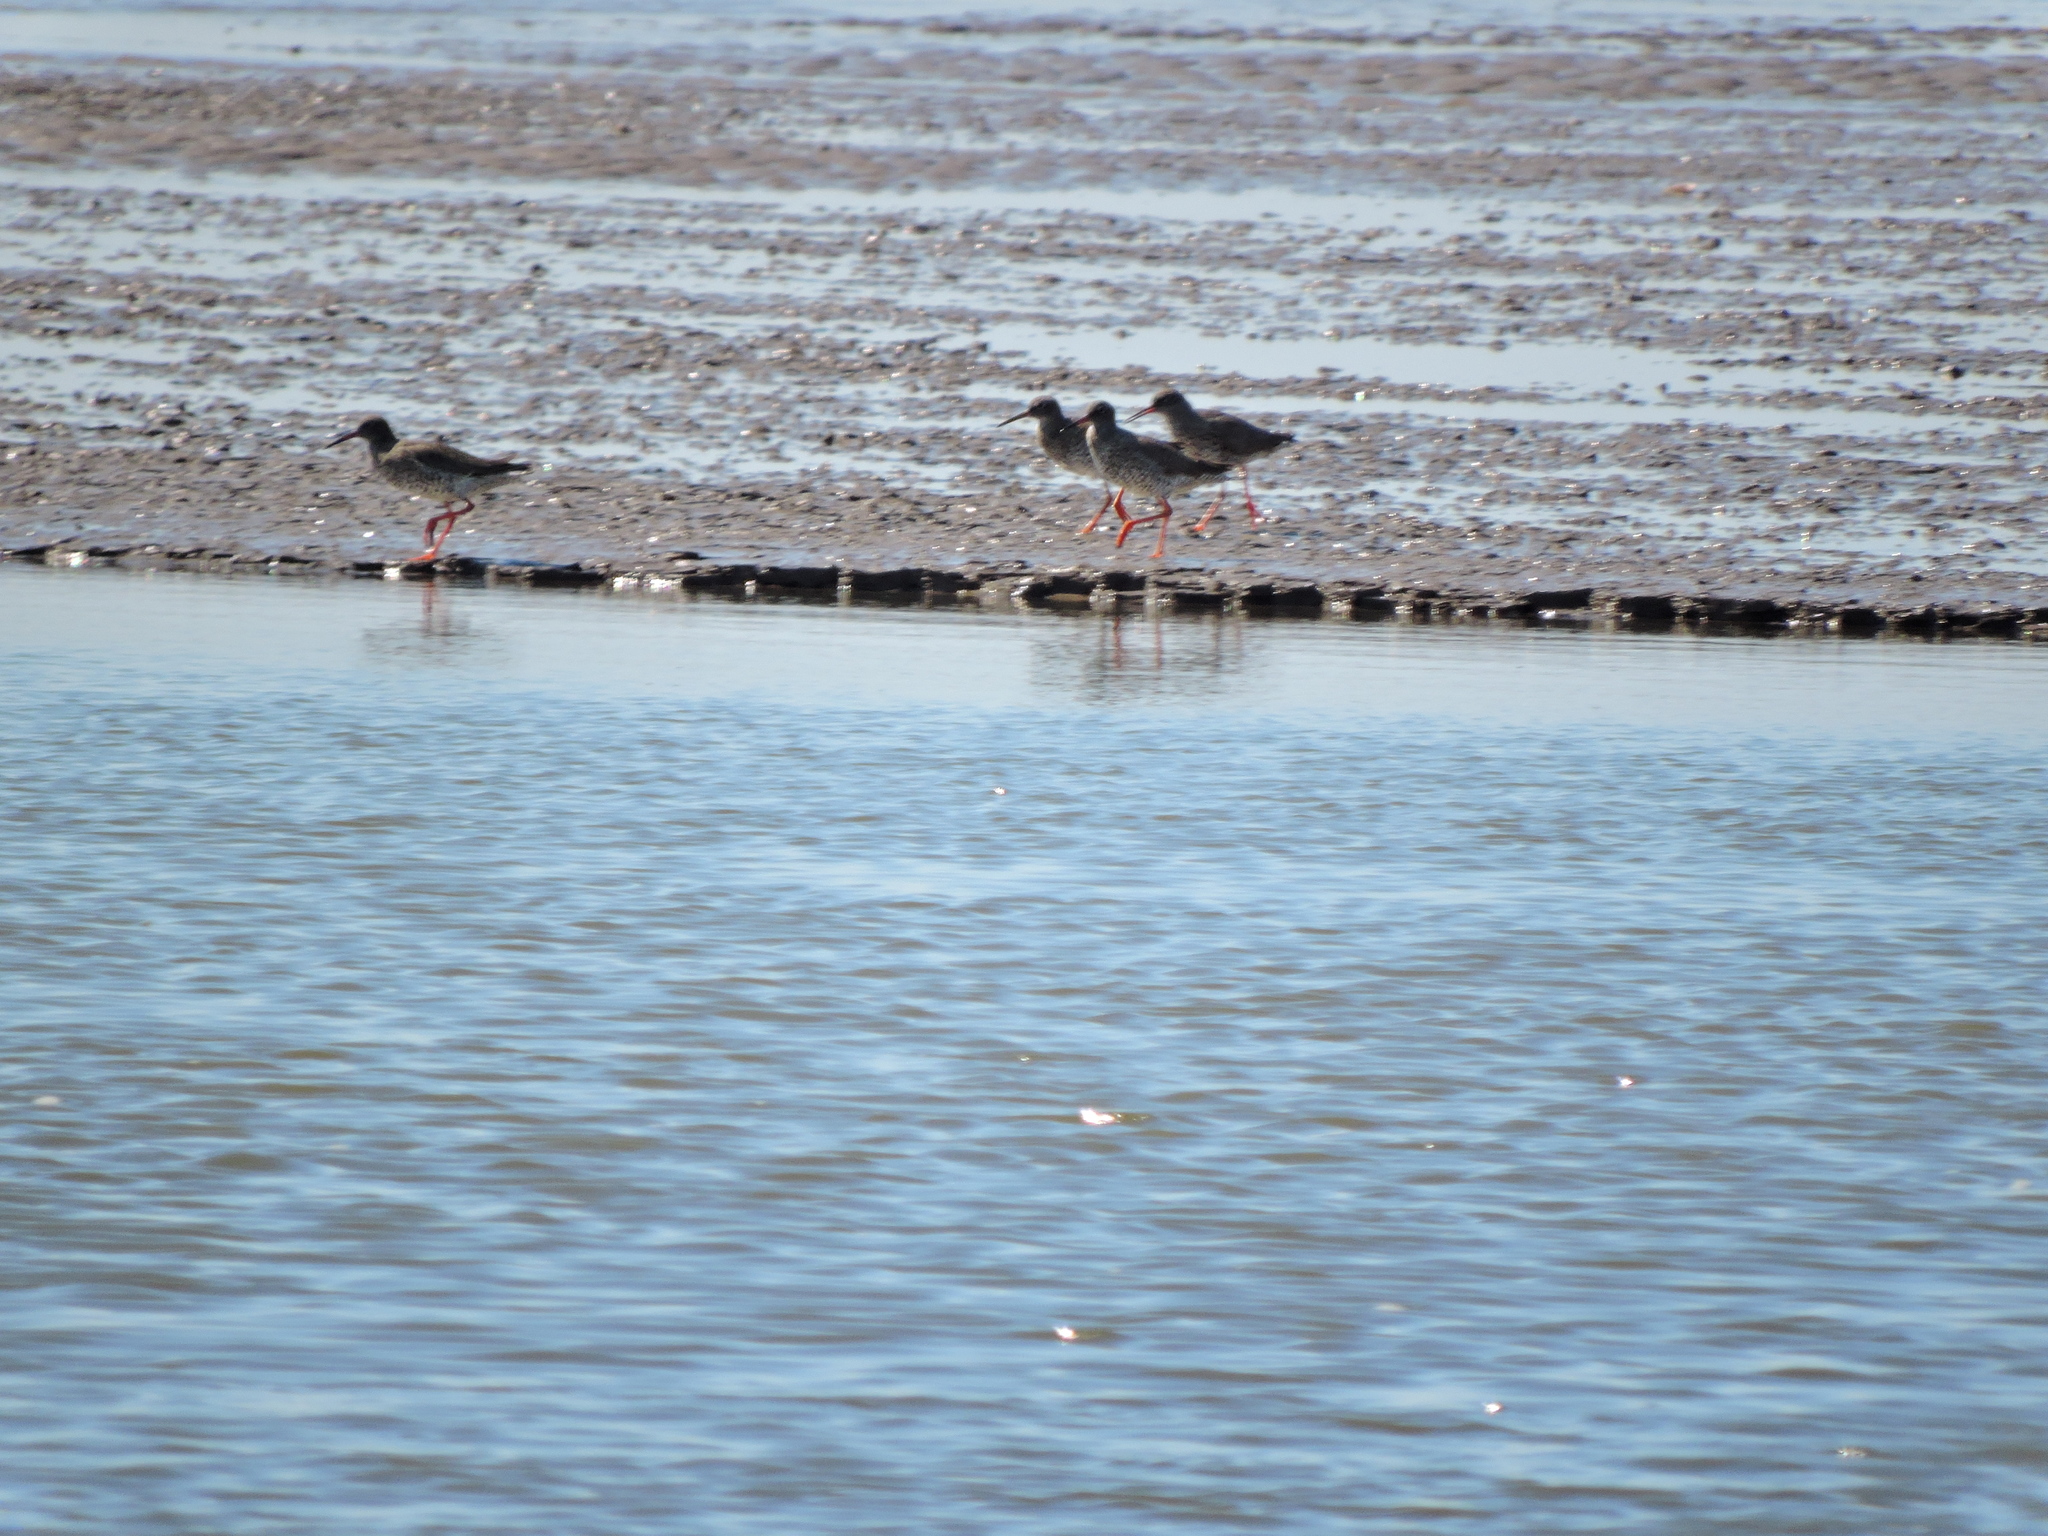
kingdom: Animalia
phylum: Chordata
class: Aves
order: Charadriiformes
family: Scolopacidae
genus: Tringa
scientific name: Tringa totanus
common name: Common redshank
